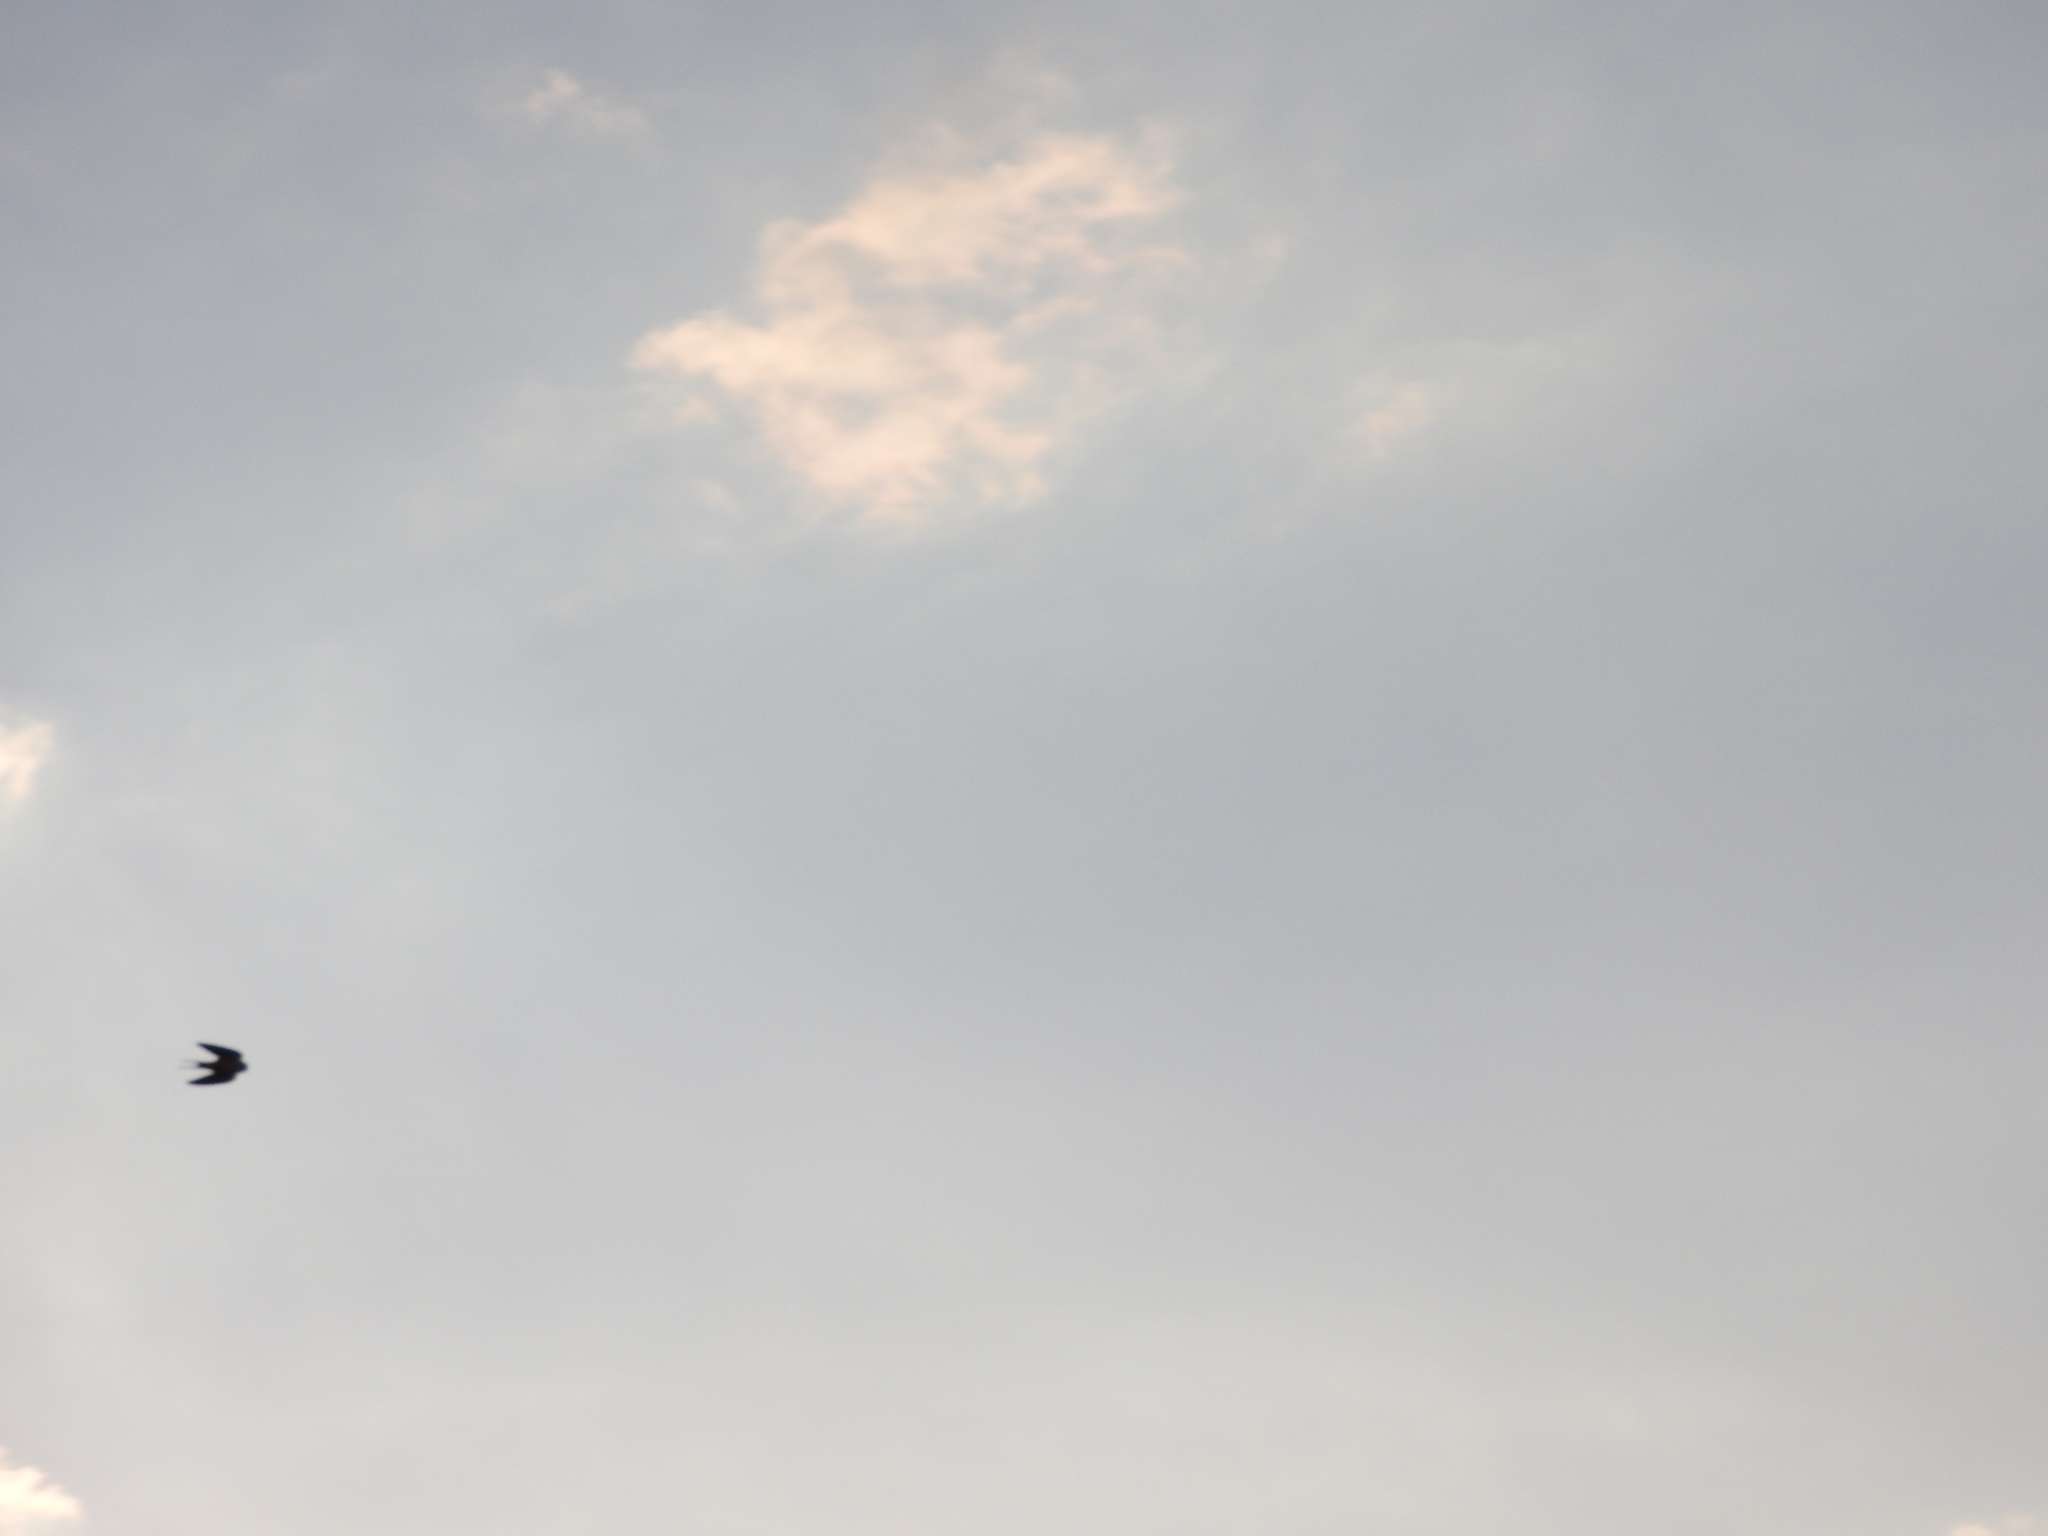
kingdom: Animalia
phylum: Chordata
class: Aves
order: Passeriformes
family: Hirundinidae
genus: Hirundo
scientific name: Hirundo rustica
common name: Barn swallow
